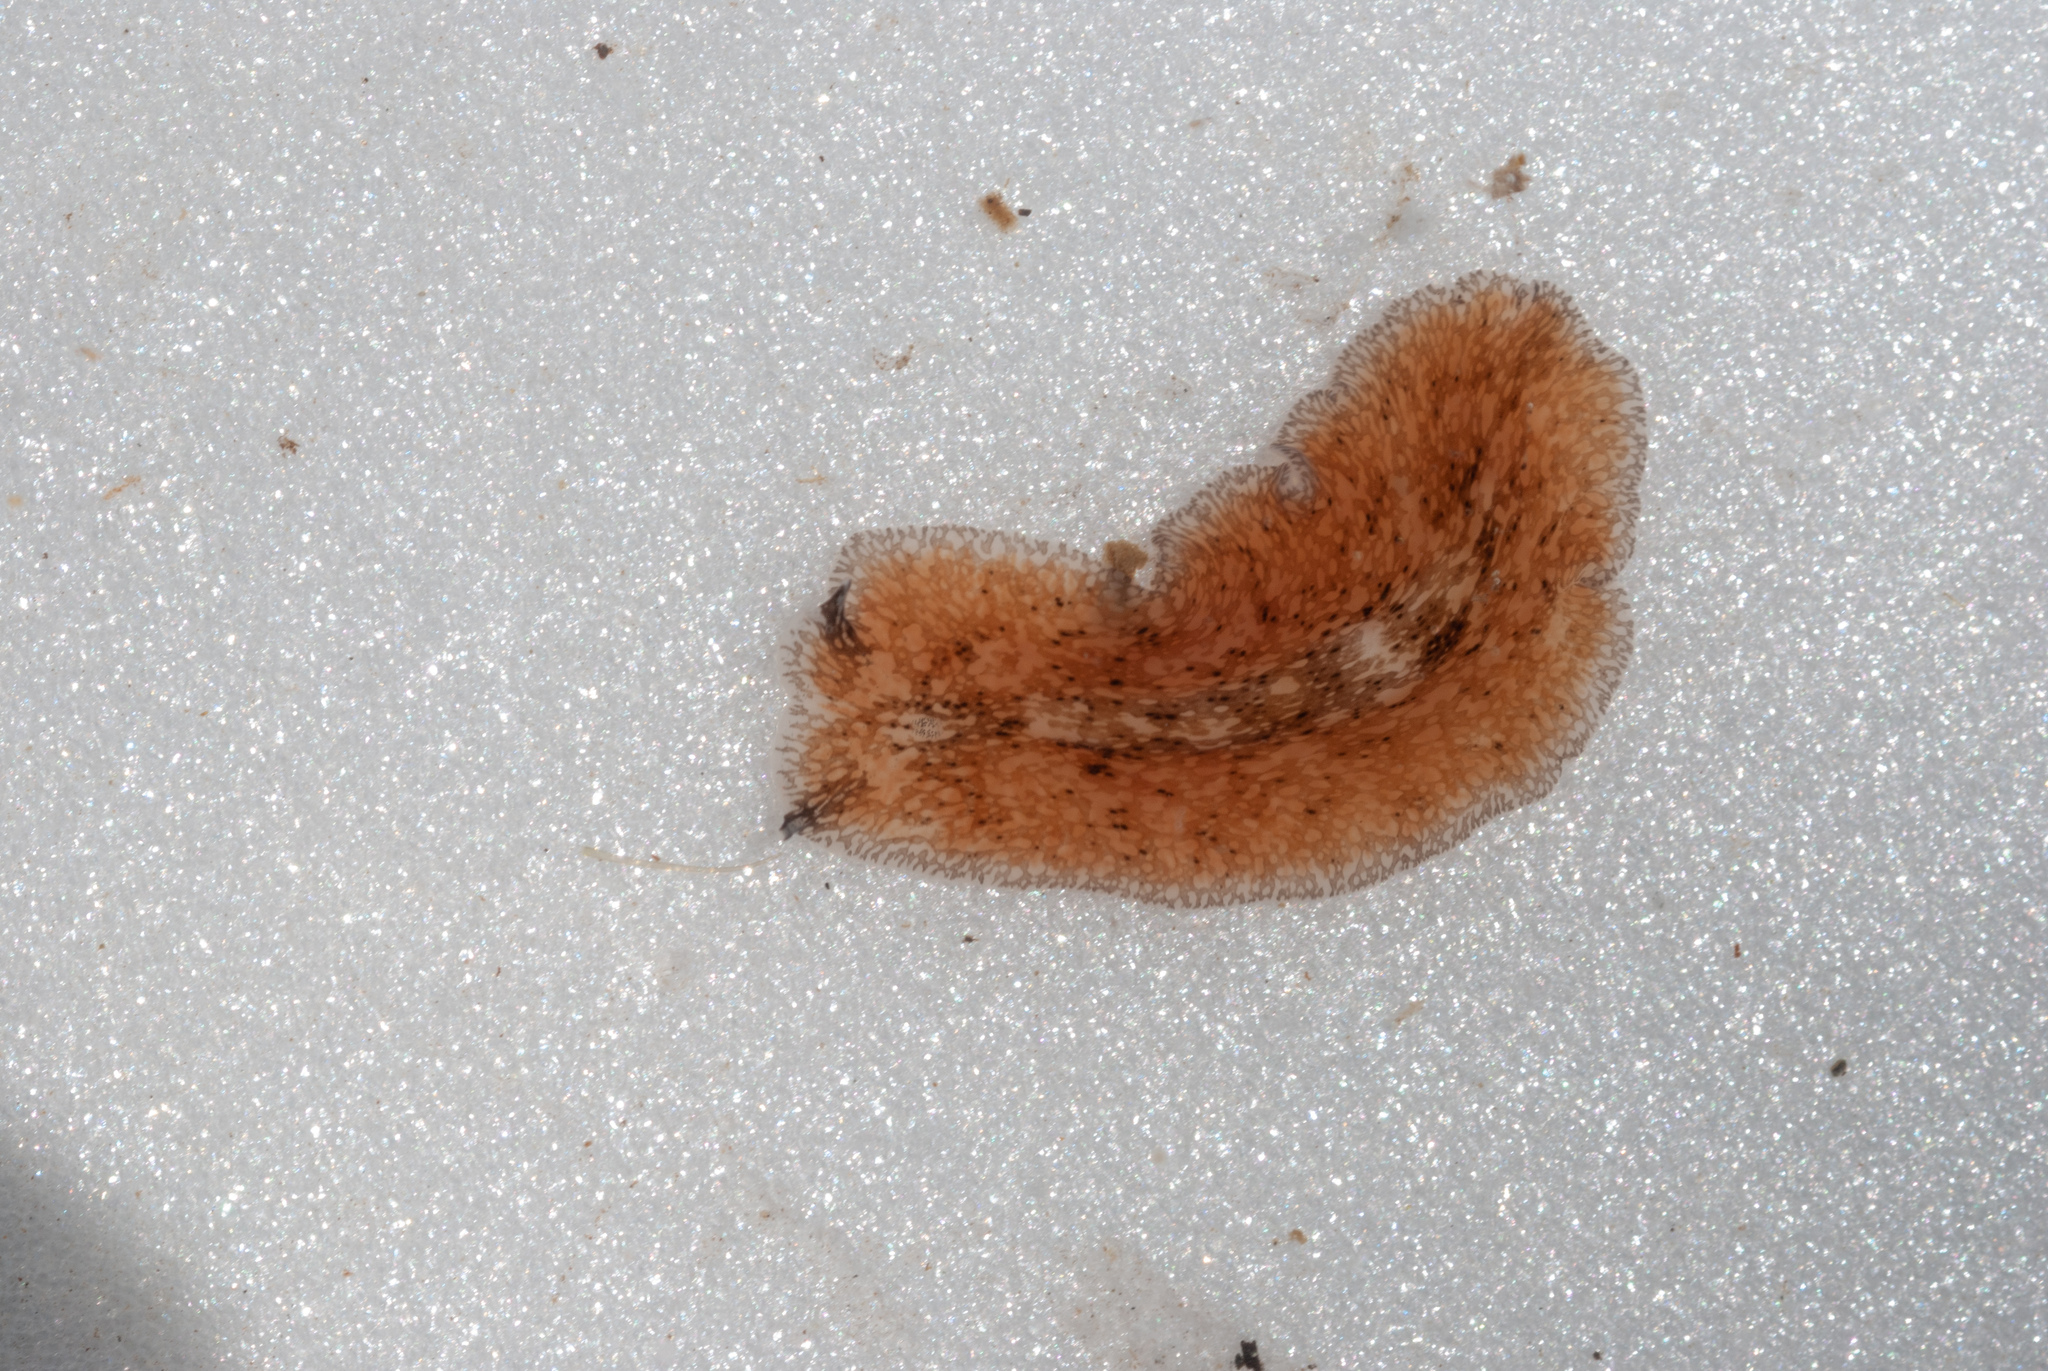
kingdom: Animalia
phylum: Platyhelminthes
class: Turbellaria
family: Pericelidae
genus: Pericelis
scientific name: Pericelis cata
